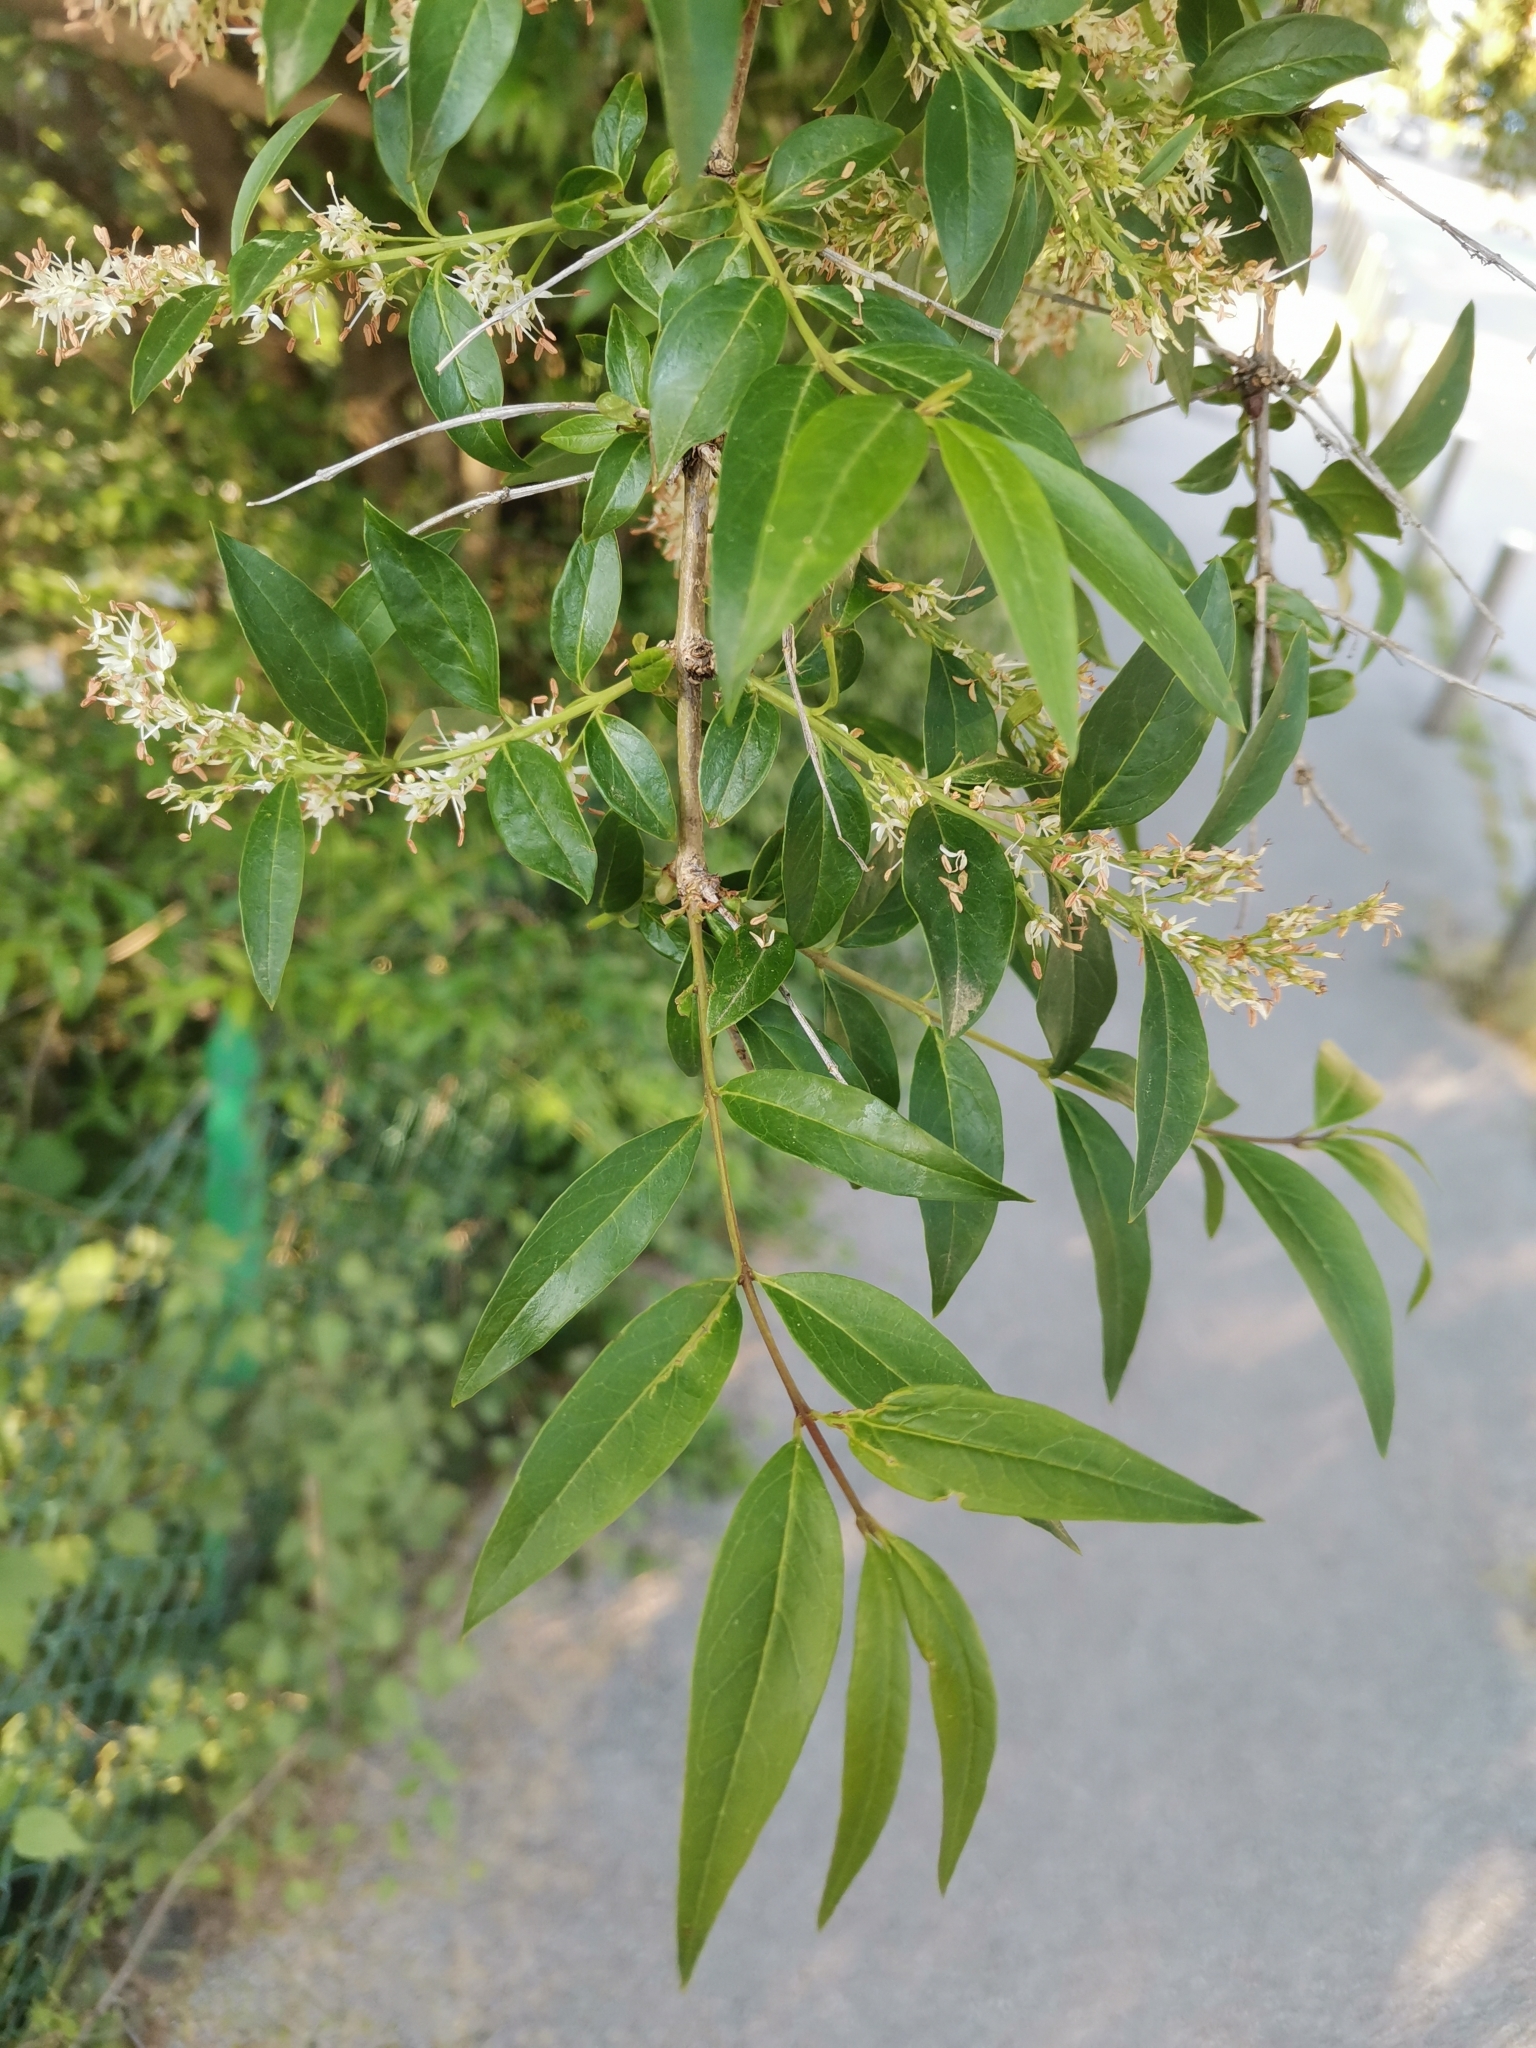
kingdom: Plantae
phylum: Tracheophyta
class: Magnoliopsida
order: Lamiales
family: Oleaceae
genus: Fontanesia
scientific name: Fontanesia fortunei
